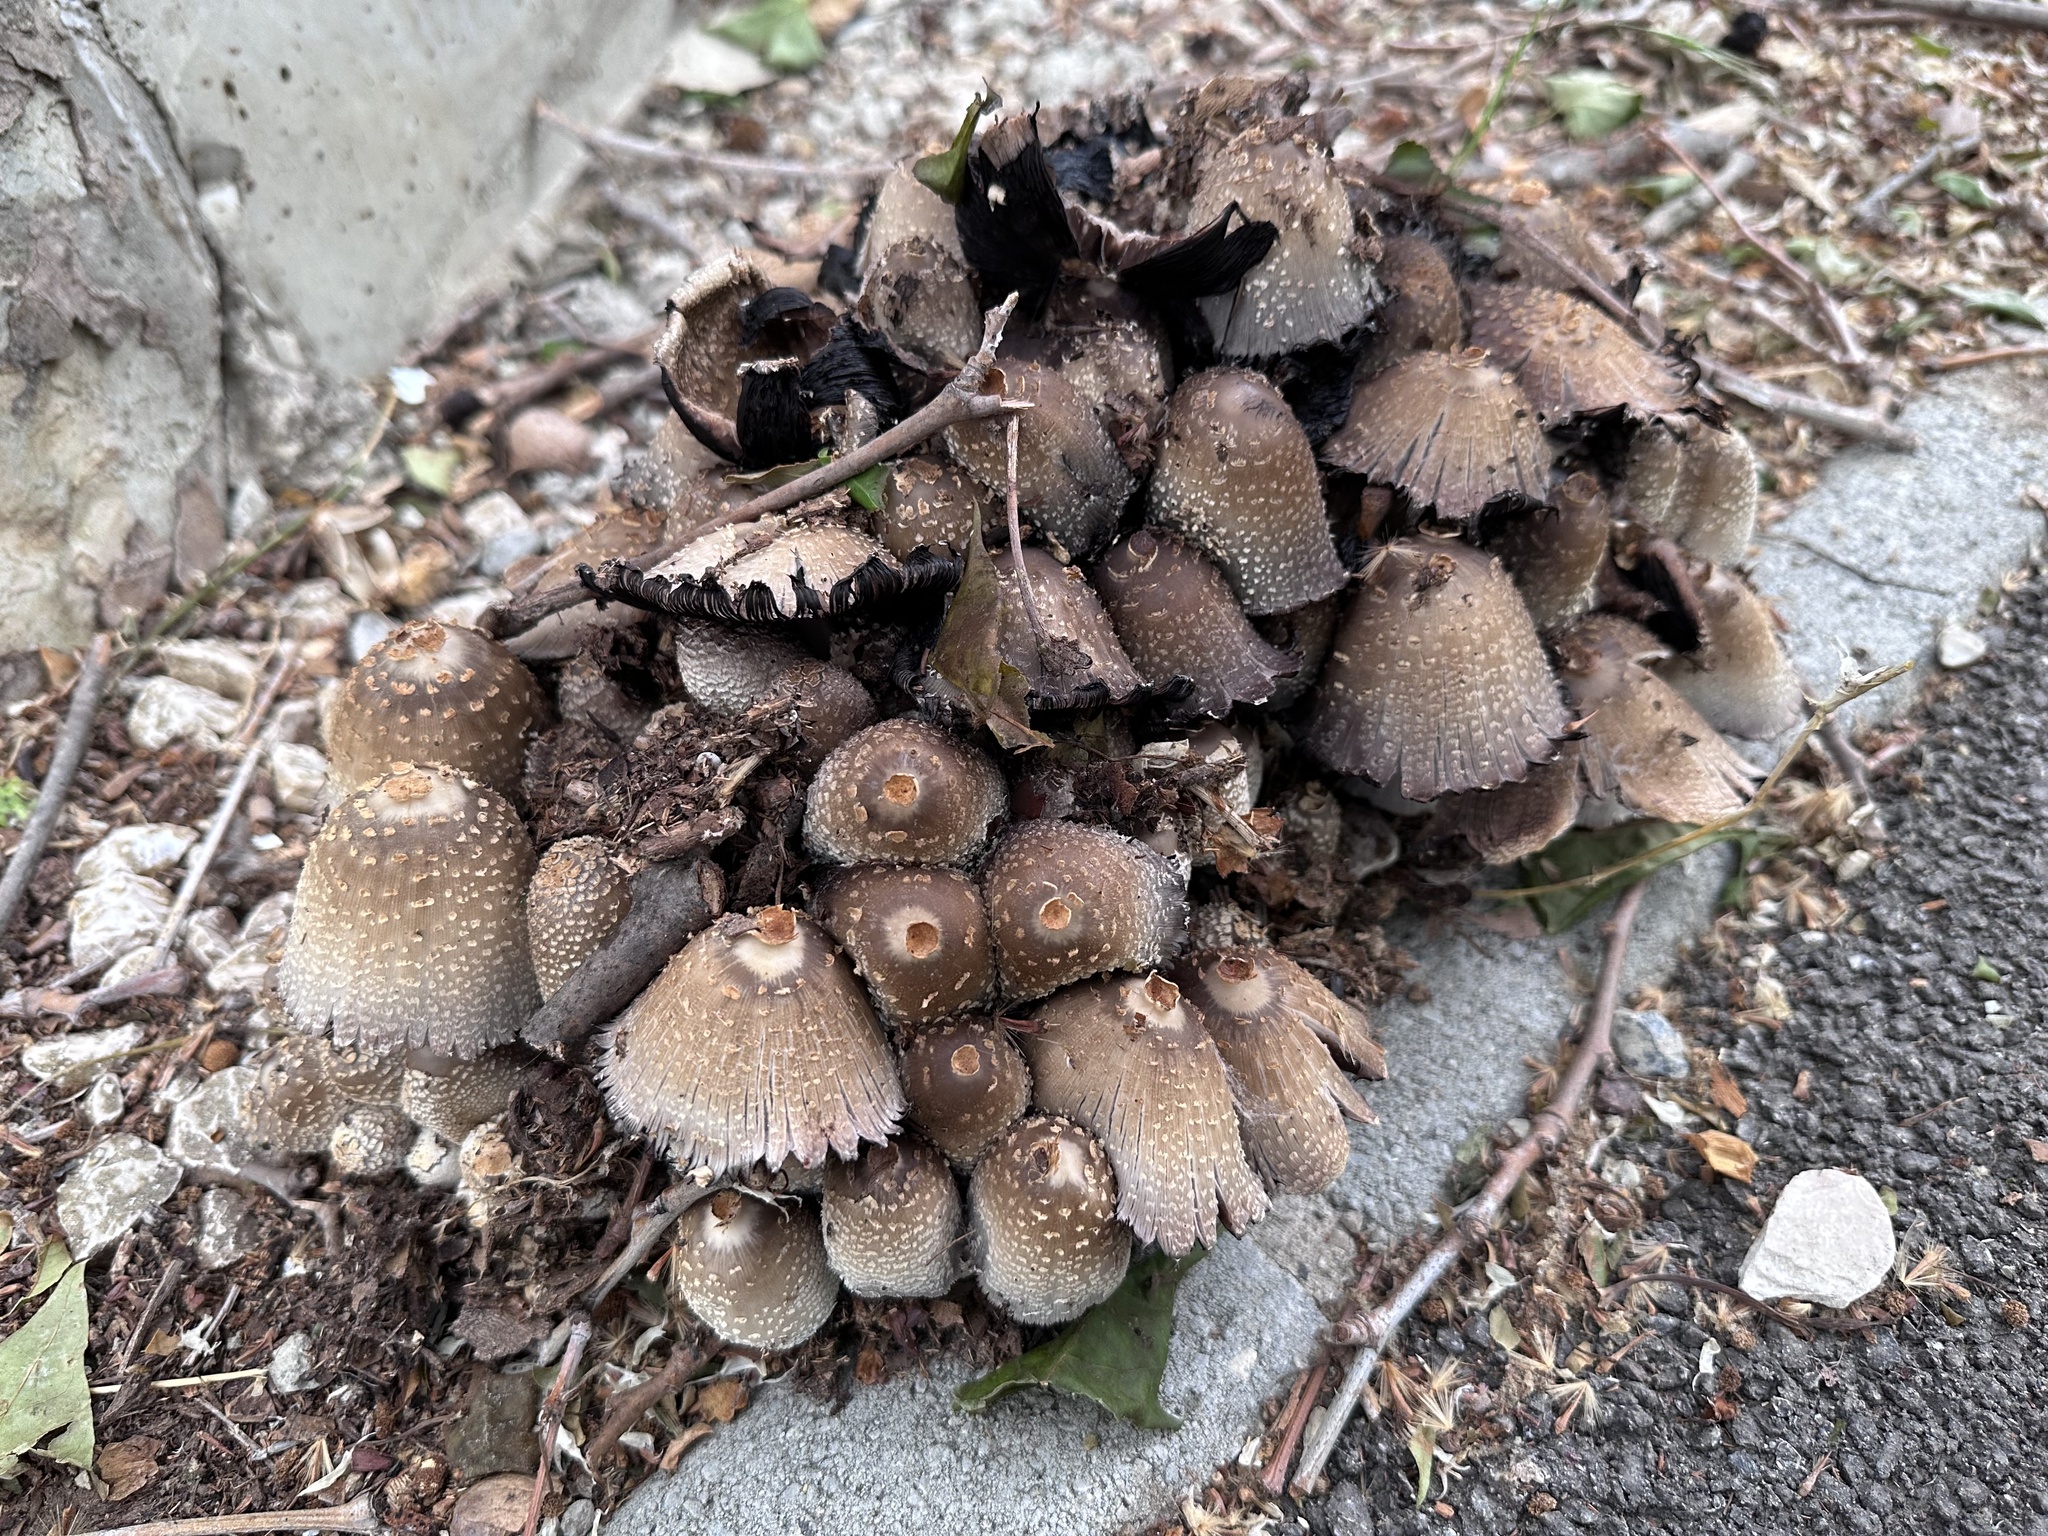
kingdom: Fungi
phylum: Basidiomycota
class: Agaricomycetes
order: Agaricales
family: Psathyrellaceae
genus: Coprinopsis
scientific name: Coprinopsis strossmayeri
